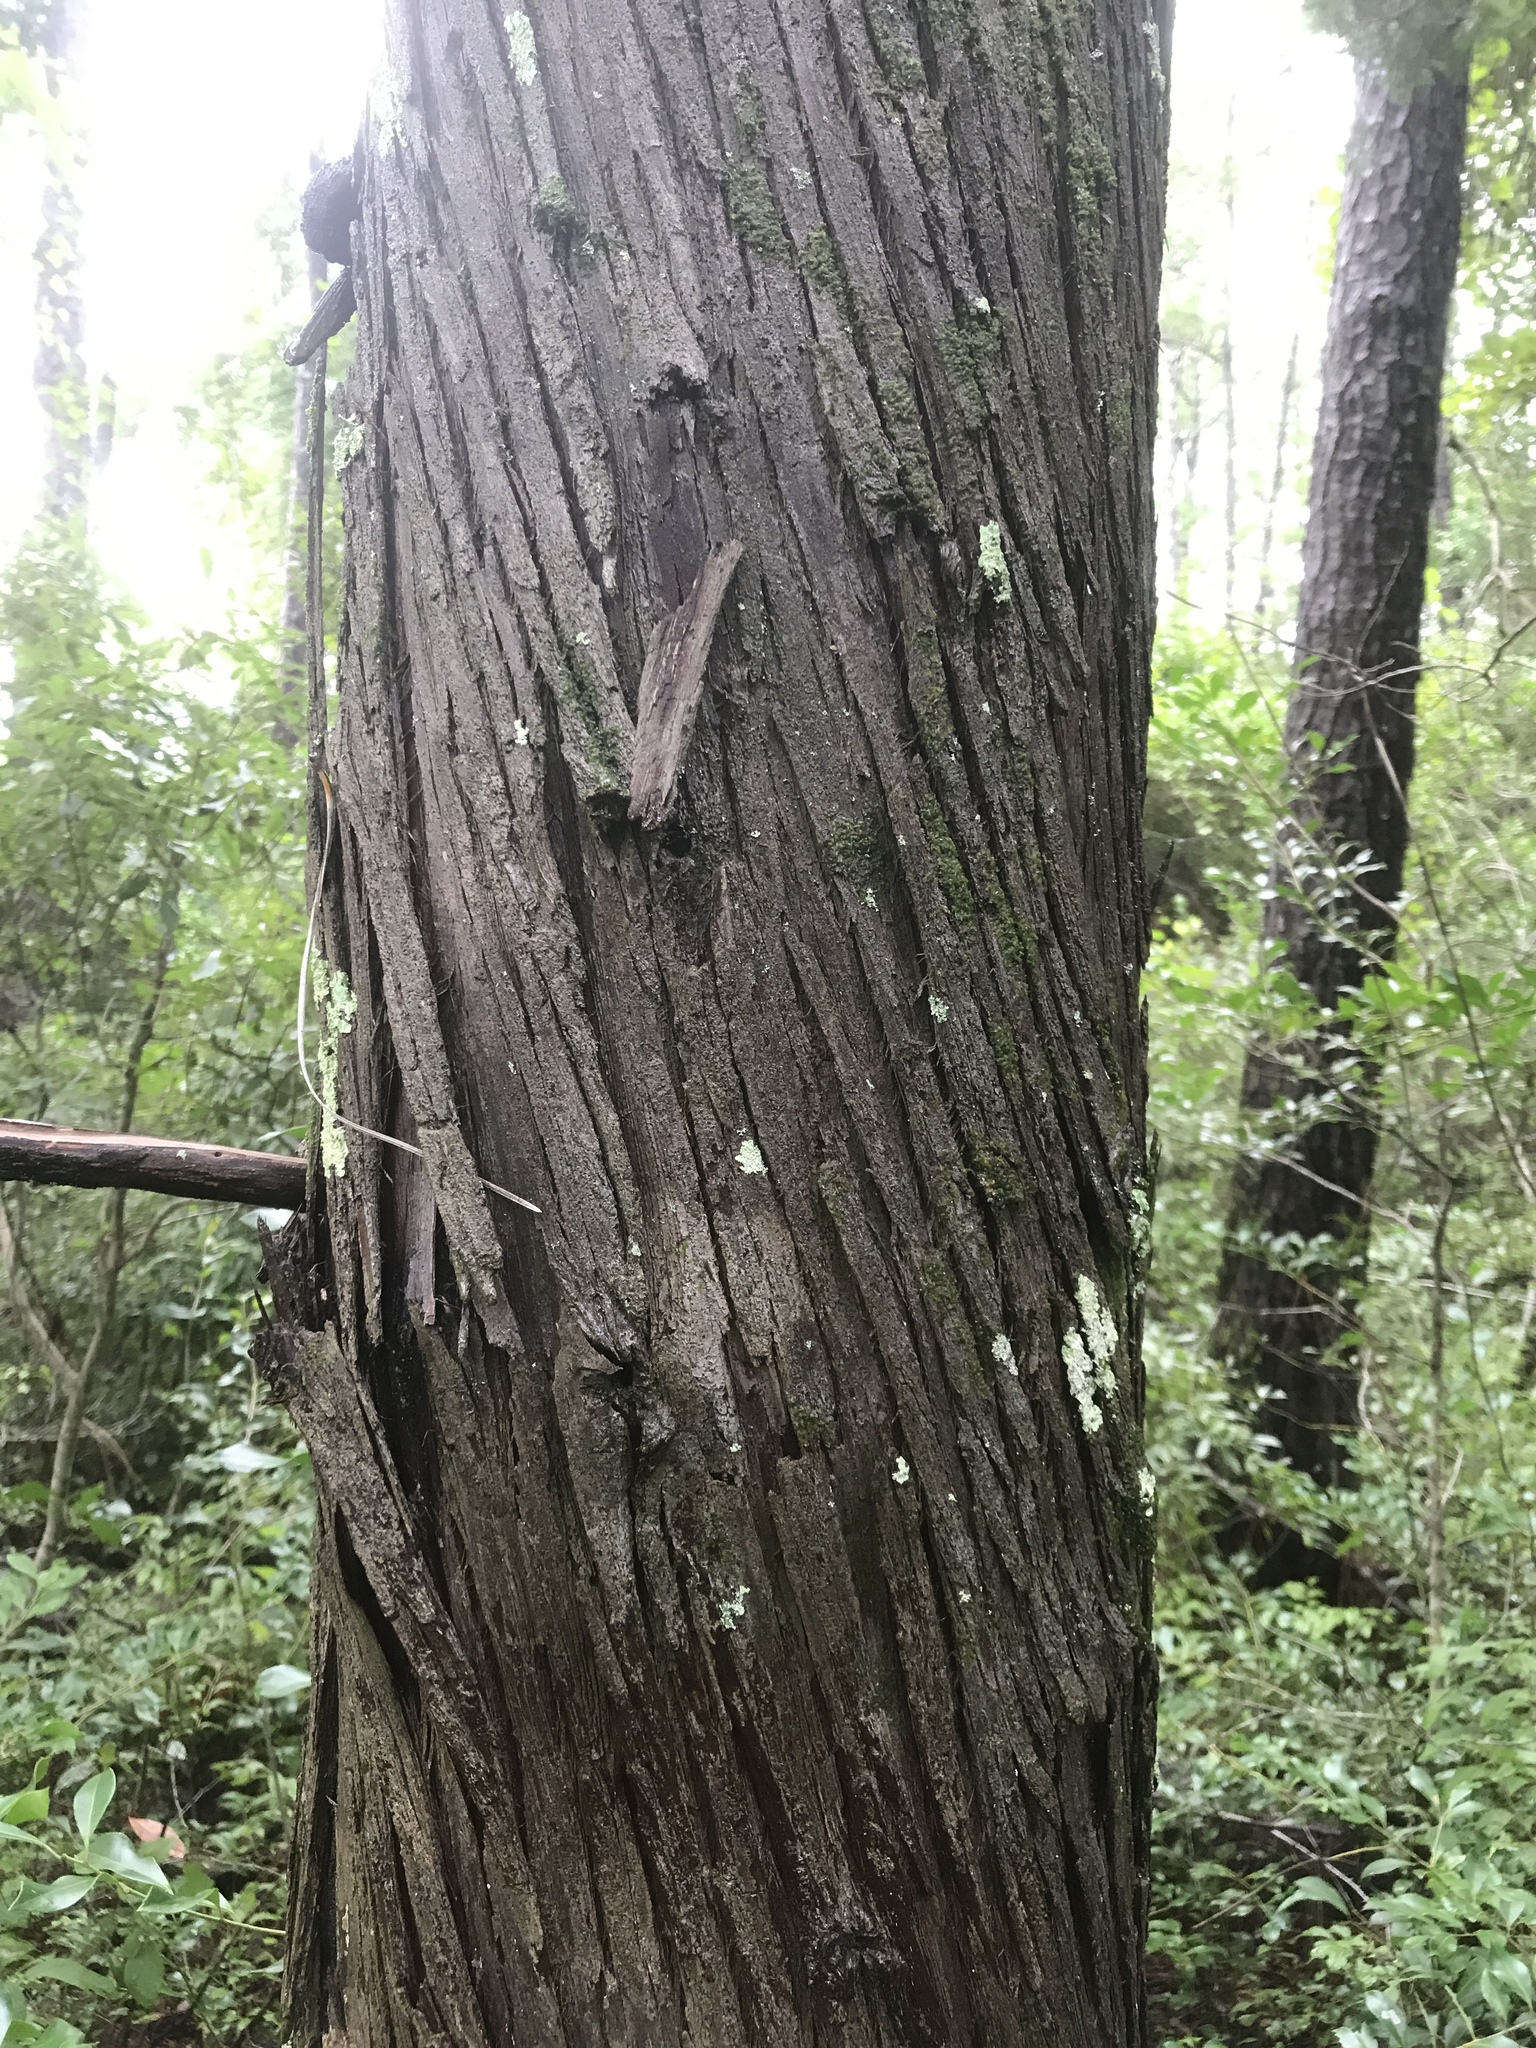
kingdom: Plantae
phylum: Tracheophyta
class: Pinopsida
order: Pinales
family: Cupressaceae
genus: Chamaecyparis
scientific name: Chamaecyparis thyoides
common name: Atlantic white cedar
